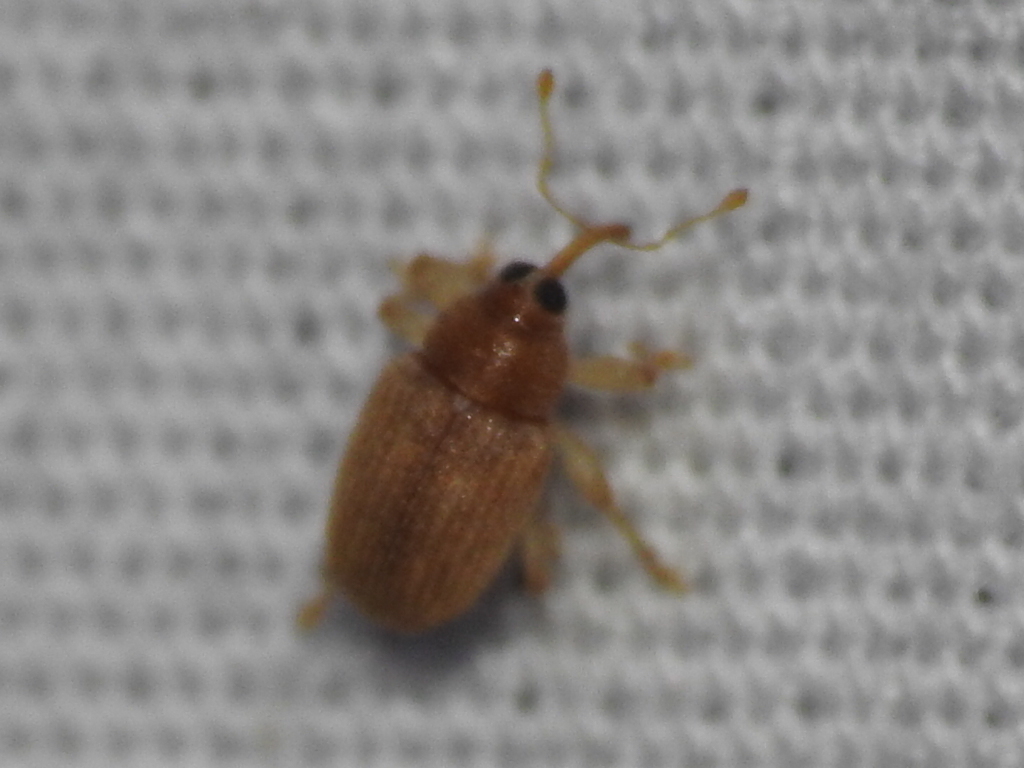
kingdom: Animalia
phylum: Arthropoda
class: Insecta
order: Coleoptera
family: Curculionidae
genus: Lignyodes
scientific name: Lignyodes helvolus
